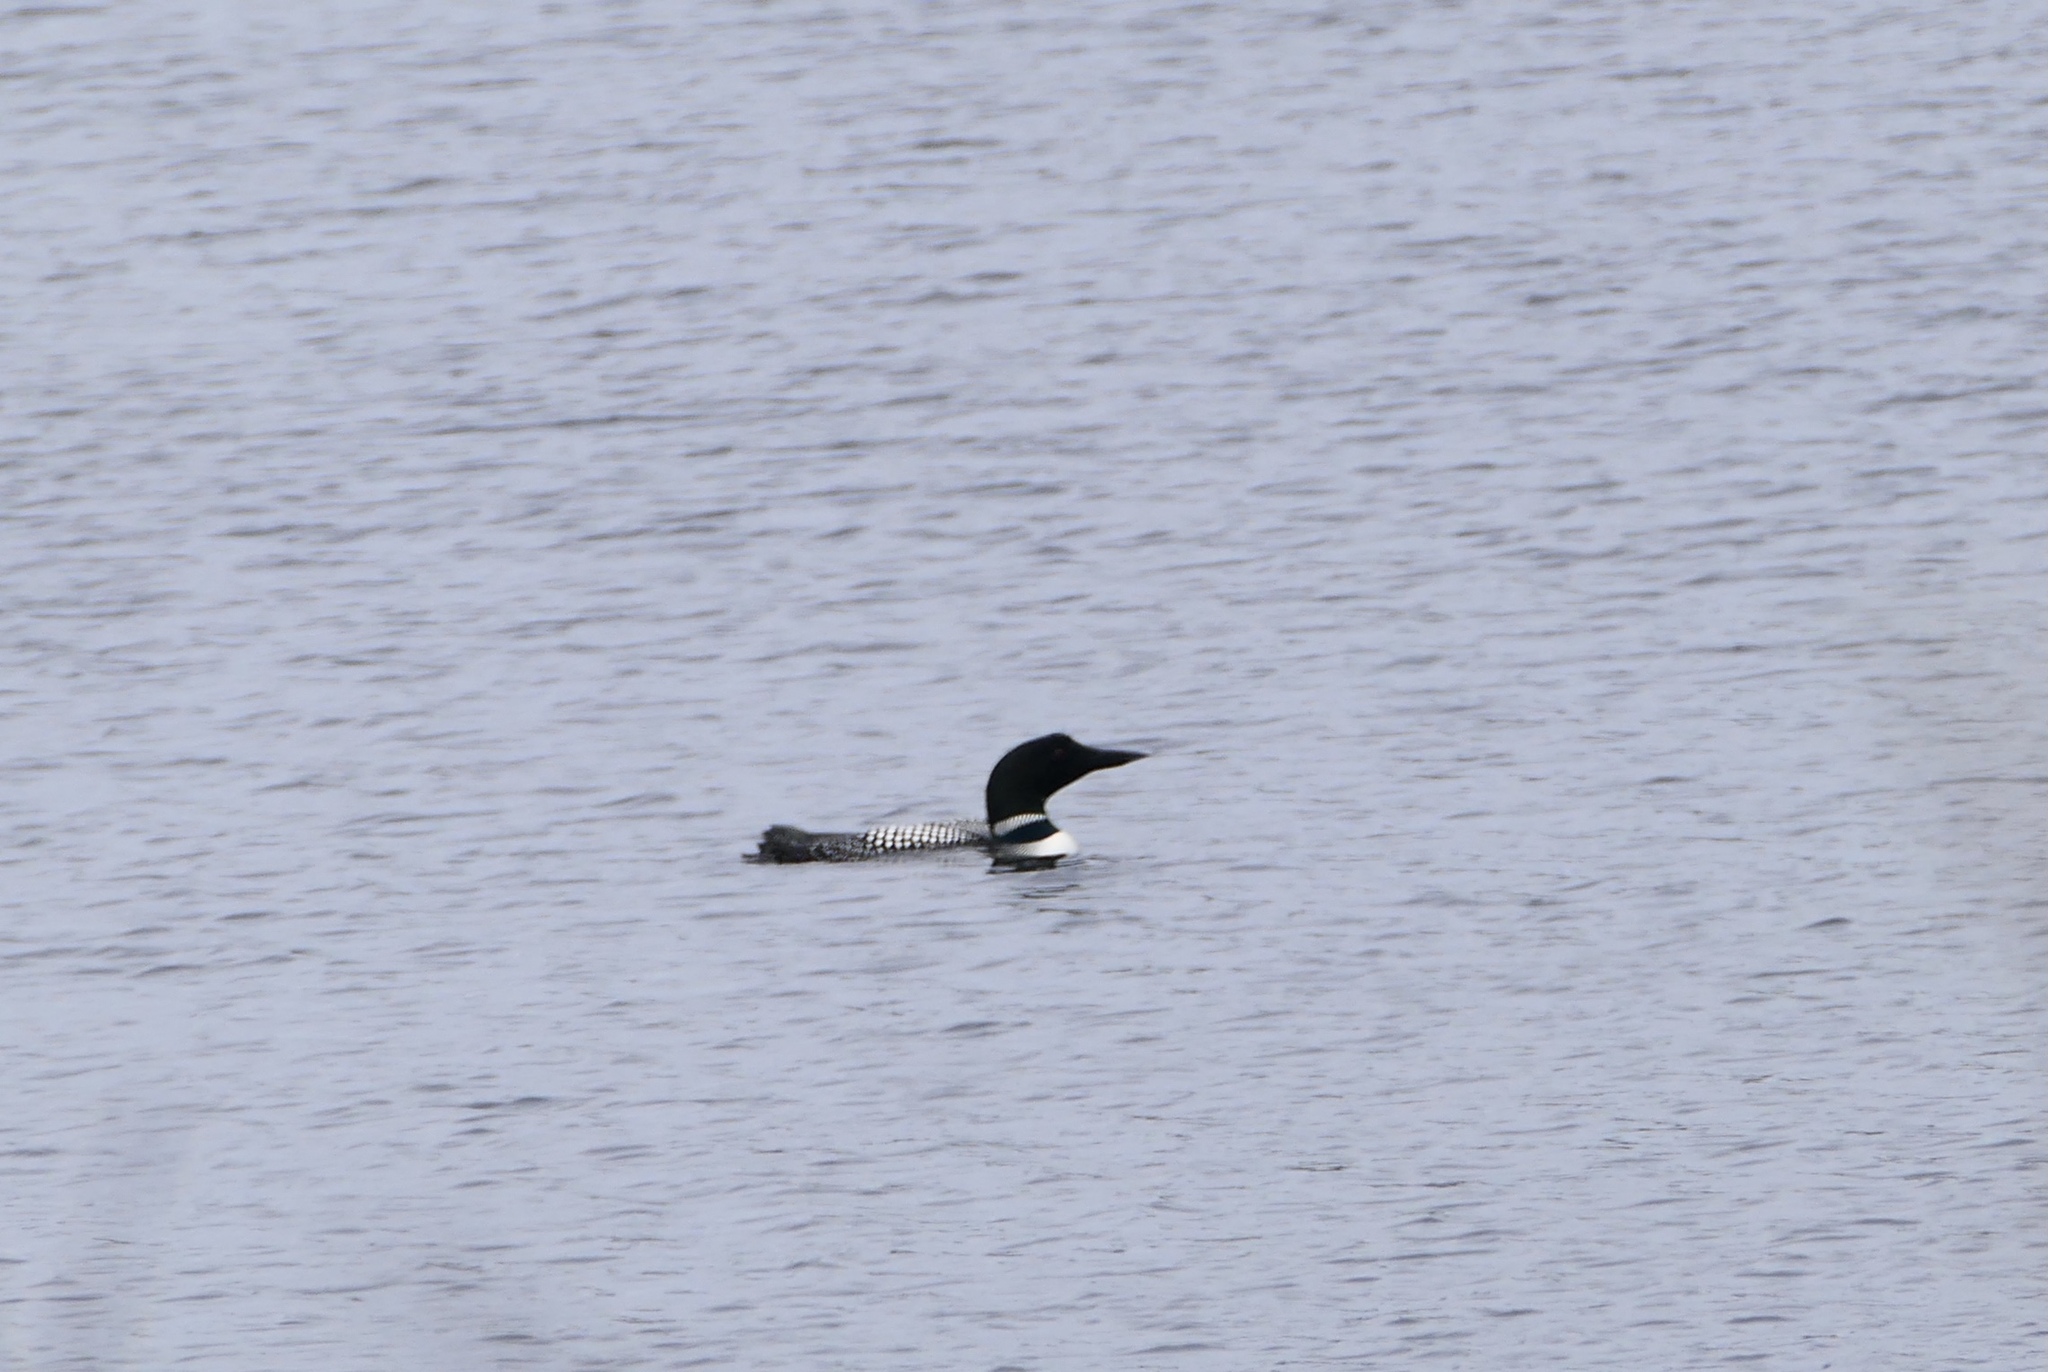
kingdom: Animalia
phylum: Chordata
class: Aves
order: Gaviiformes
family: Gaviidae
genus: Gavia
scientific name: Gavia immer
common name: Common loon
